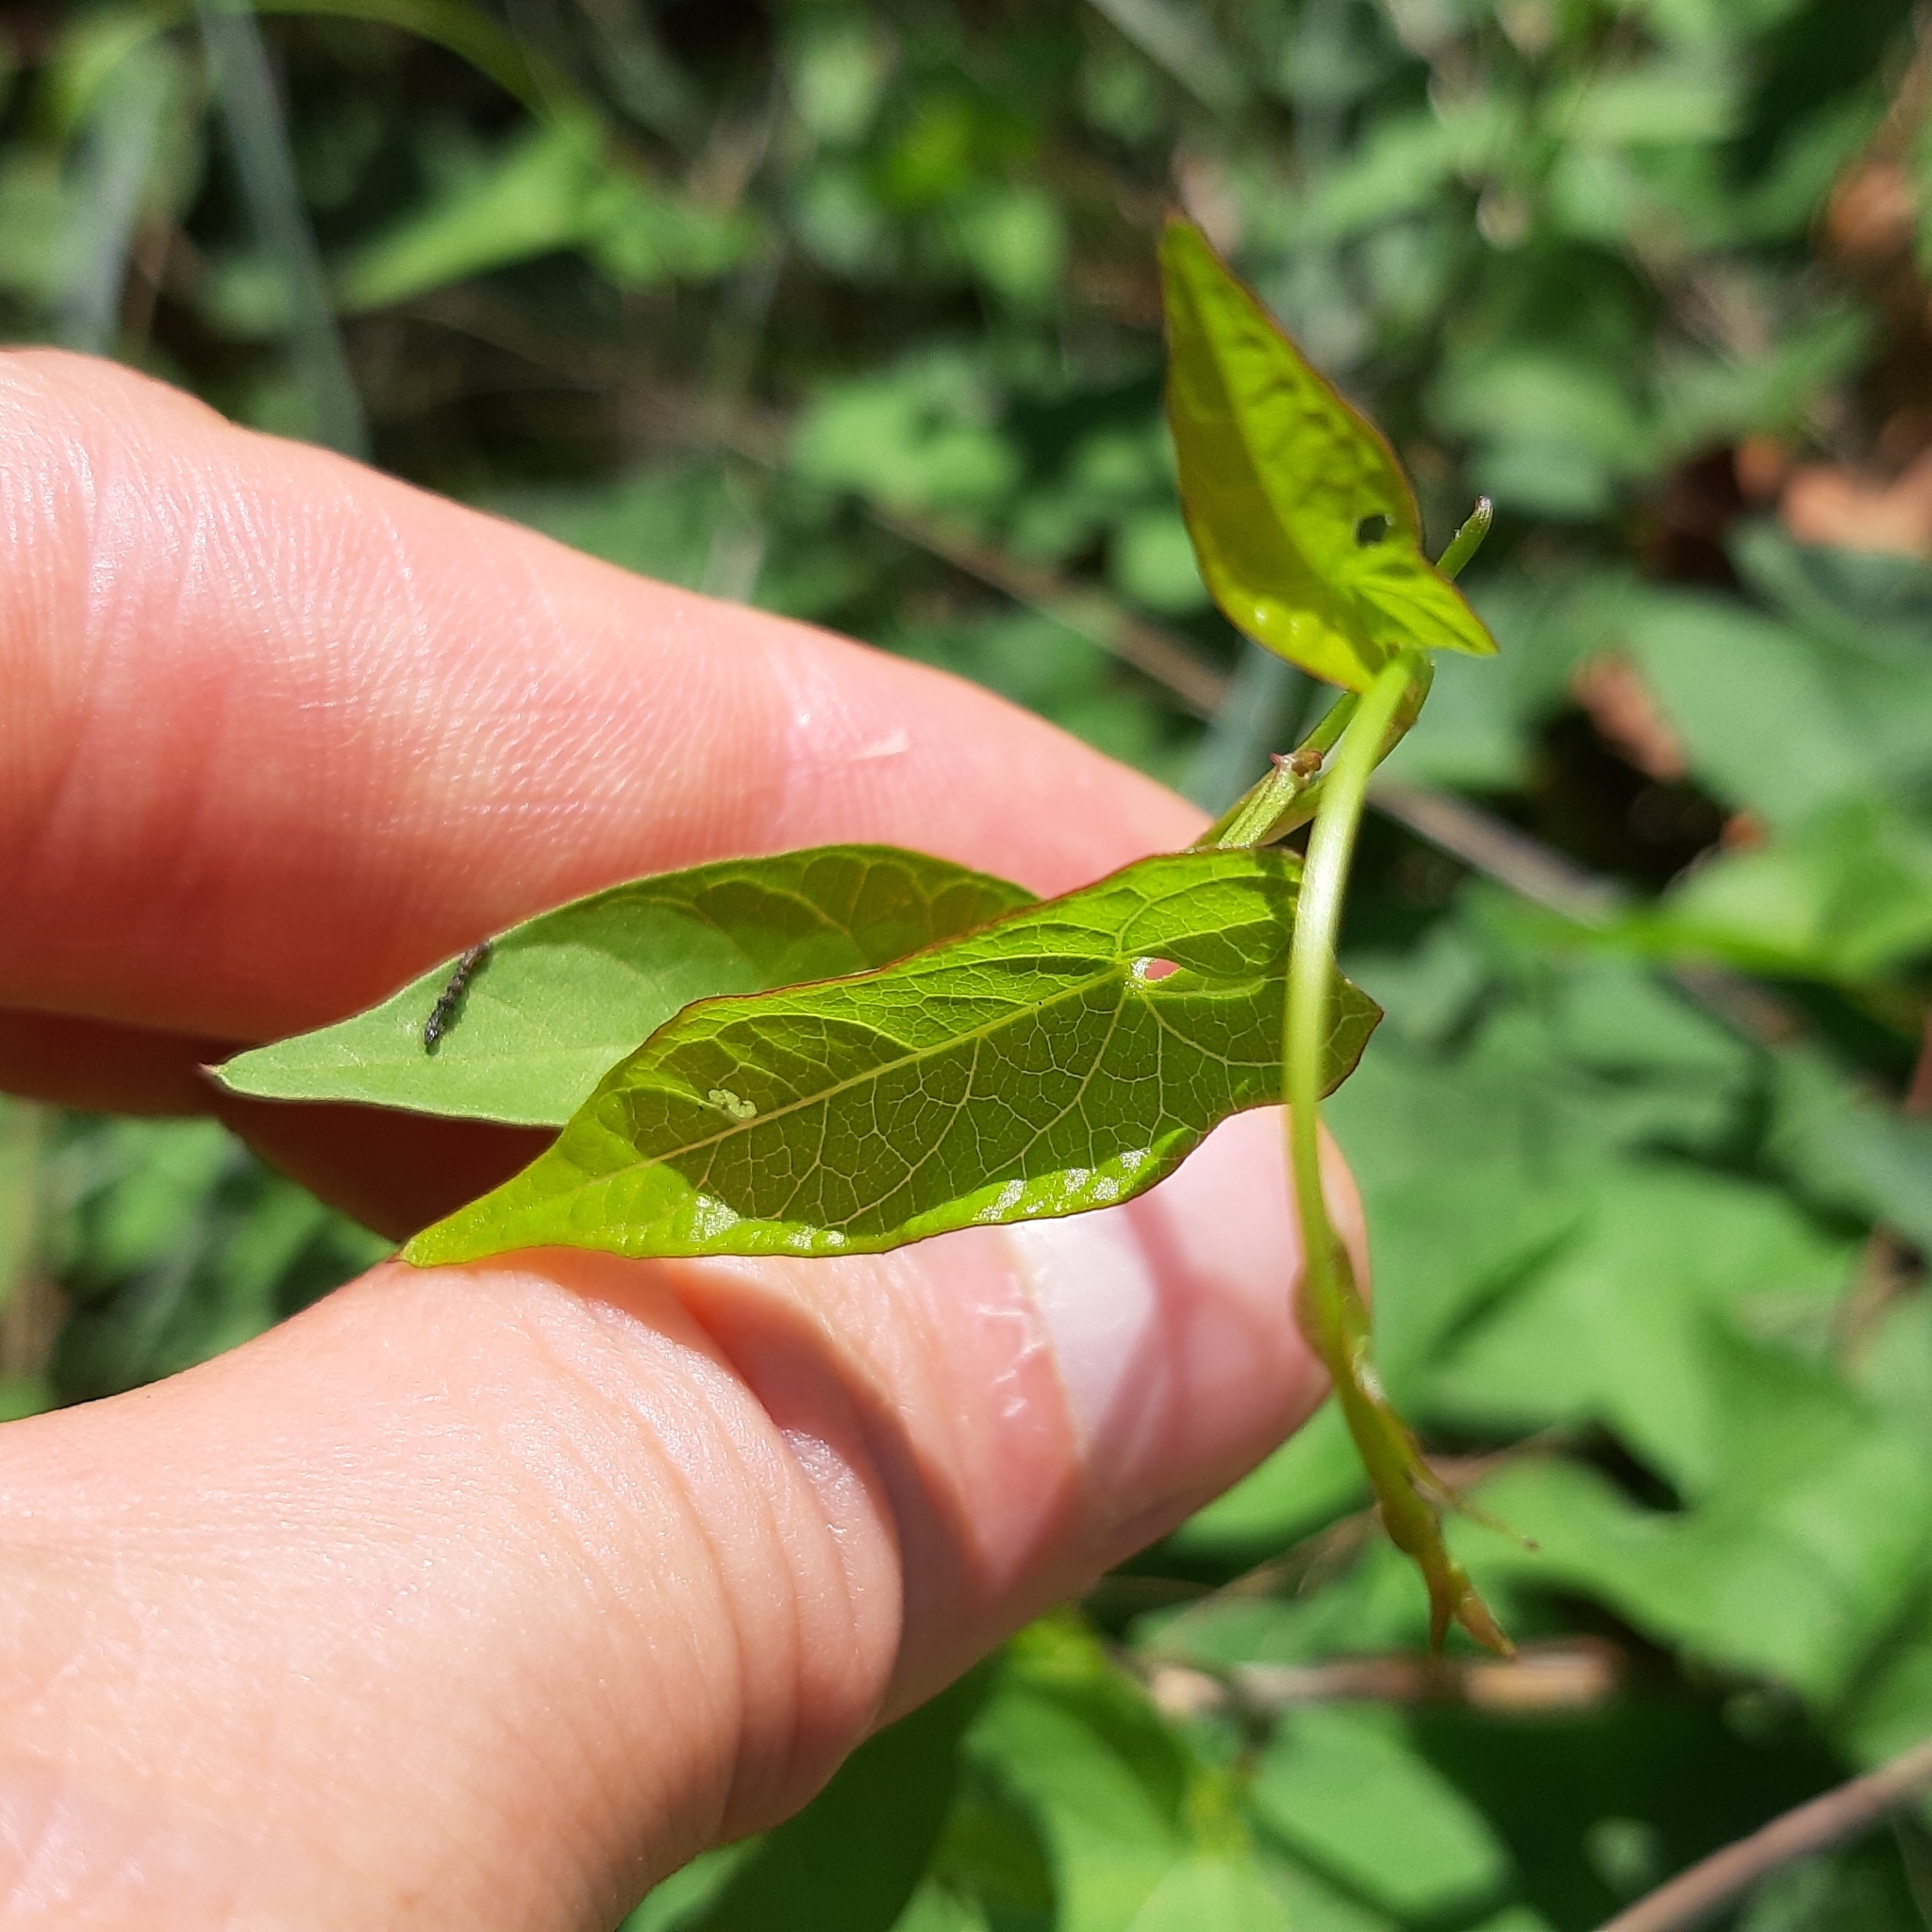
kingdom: Plantae
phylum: Tracheophyta
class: Magnoliopsida
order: Solanales
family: Convolvulaceae
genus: Calystegia
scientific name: Calystegia sepium
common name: Hedge bindweed
